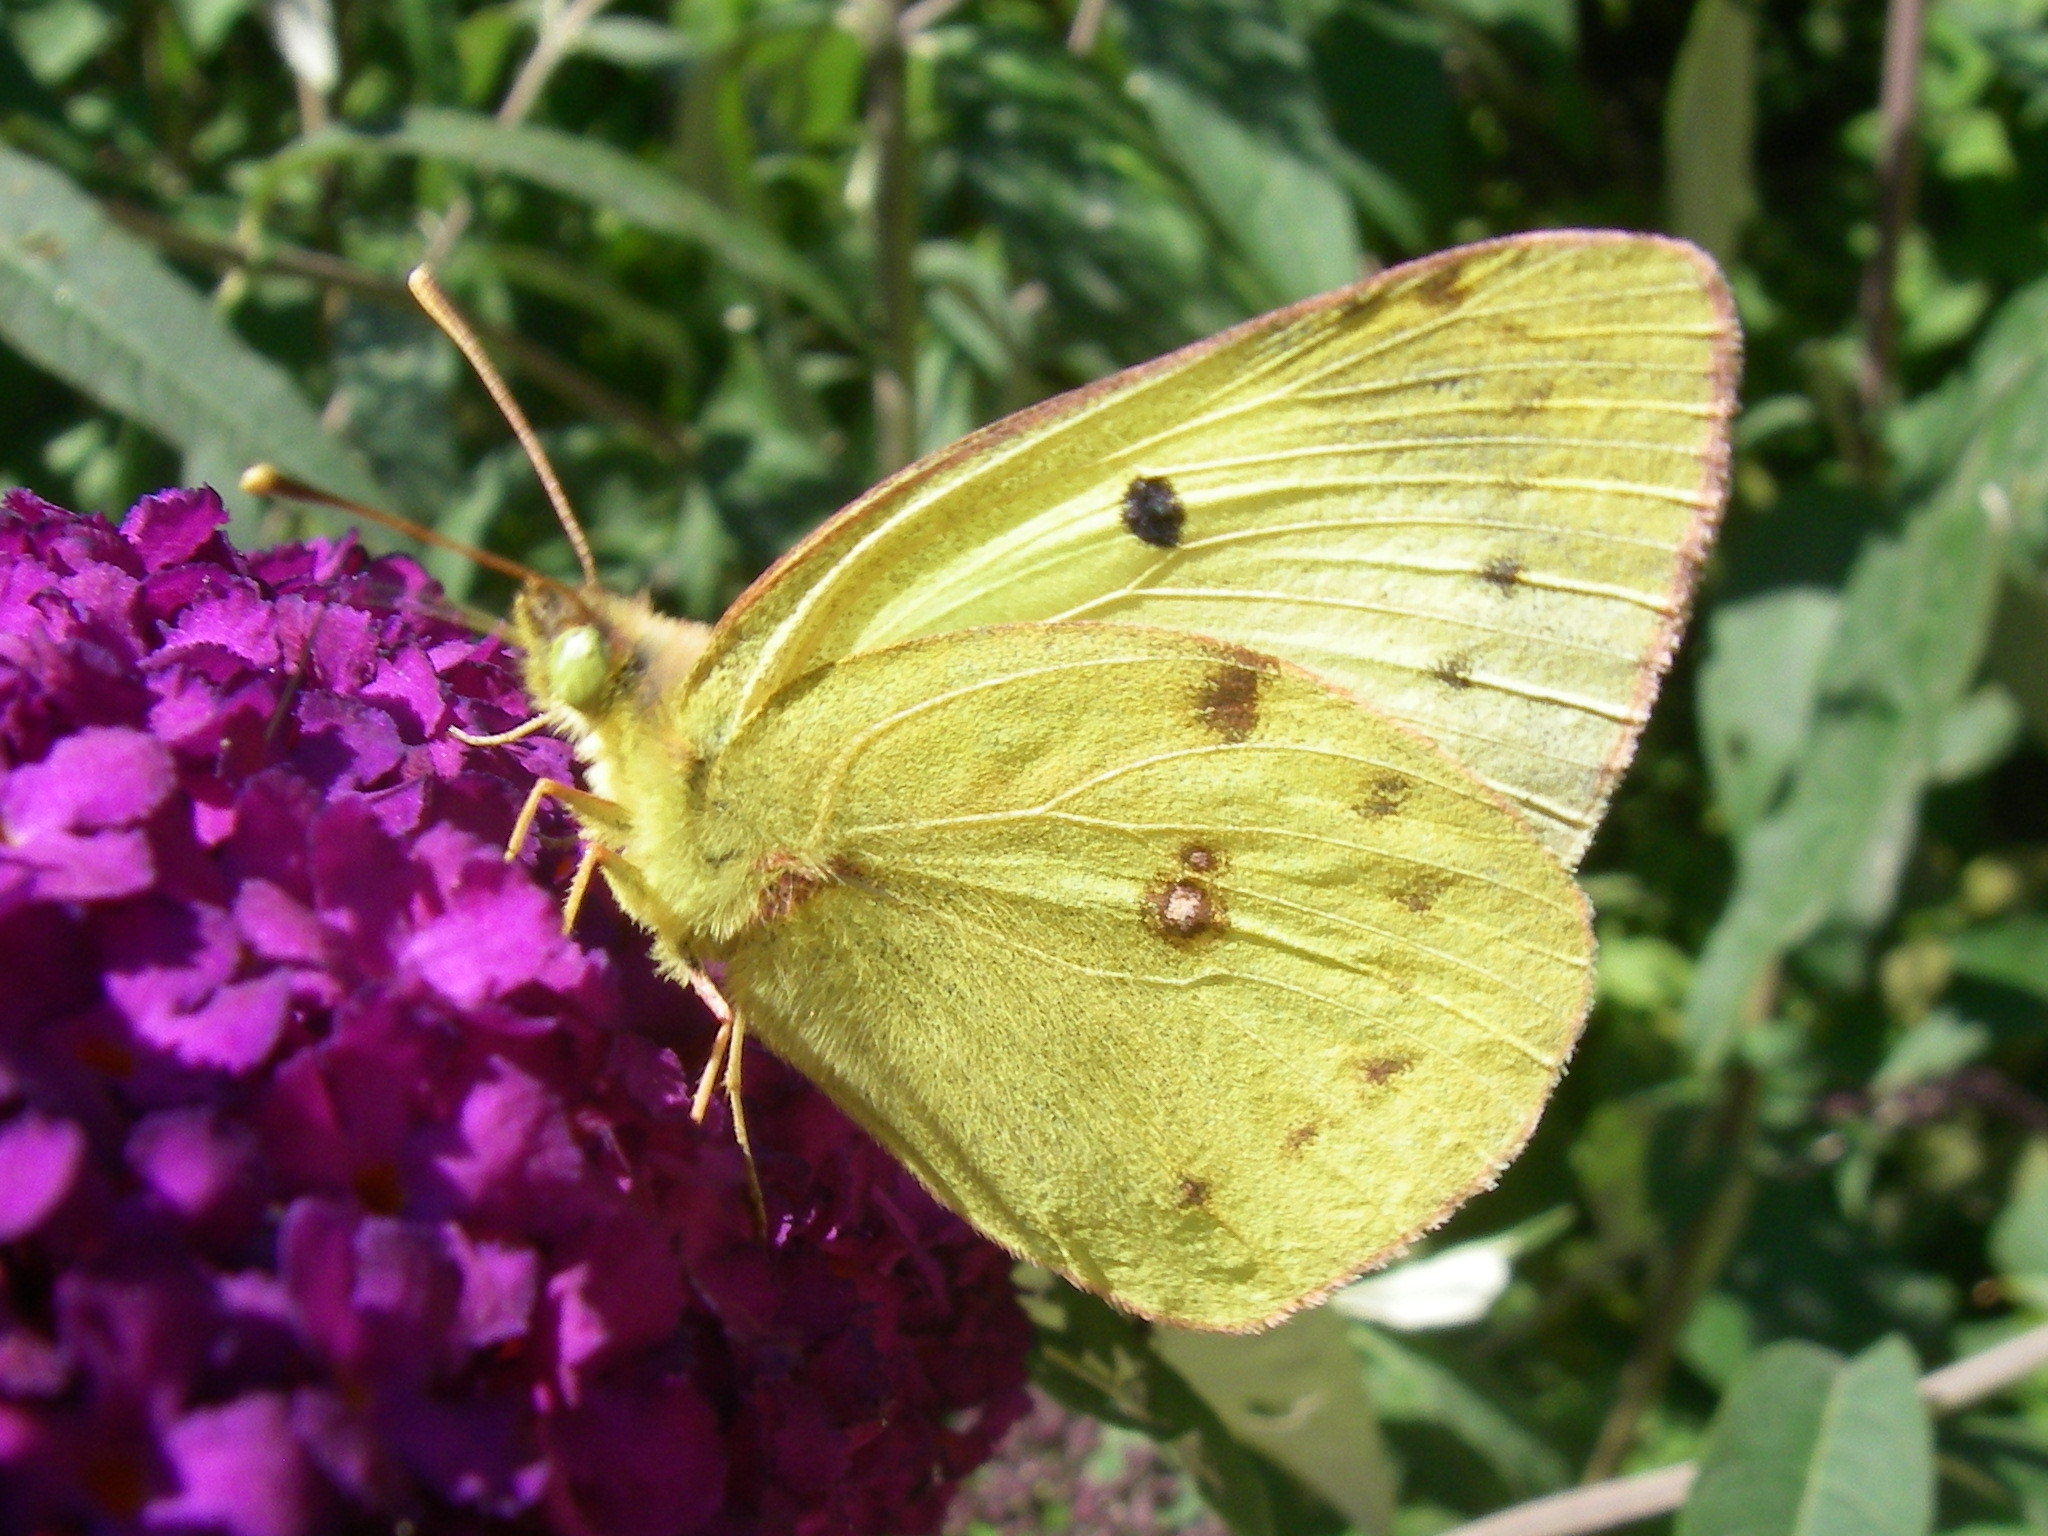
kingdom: Animalia
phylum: Arthropoda
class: Insecta
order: Lepidoptera
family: Pieridae
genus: Colias
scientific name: Colias hyale
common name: Pale clouded yellow
